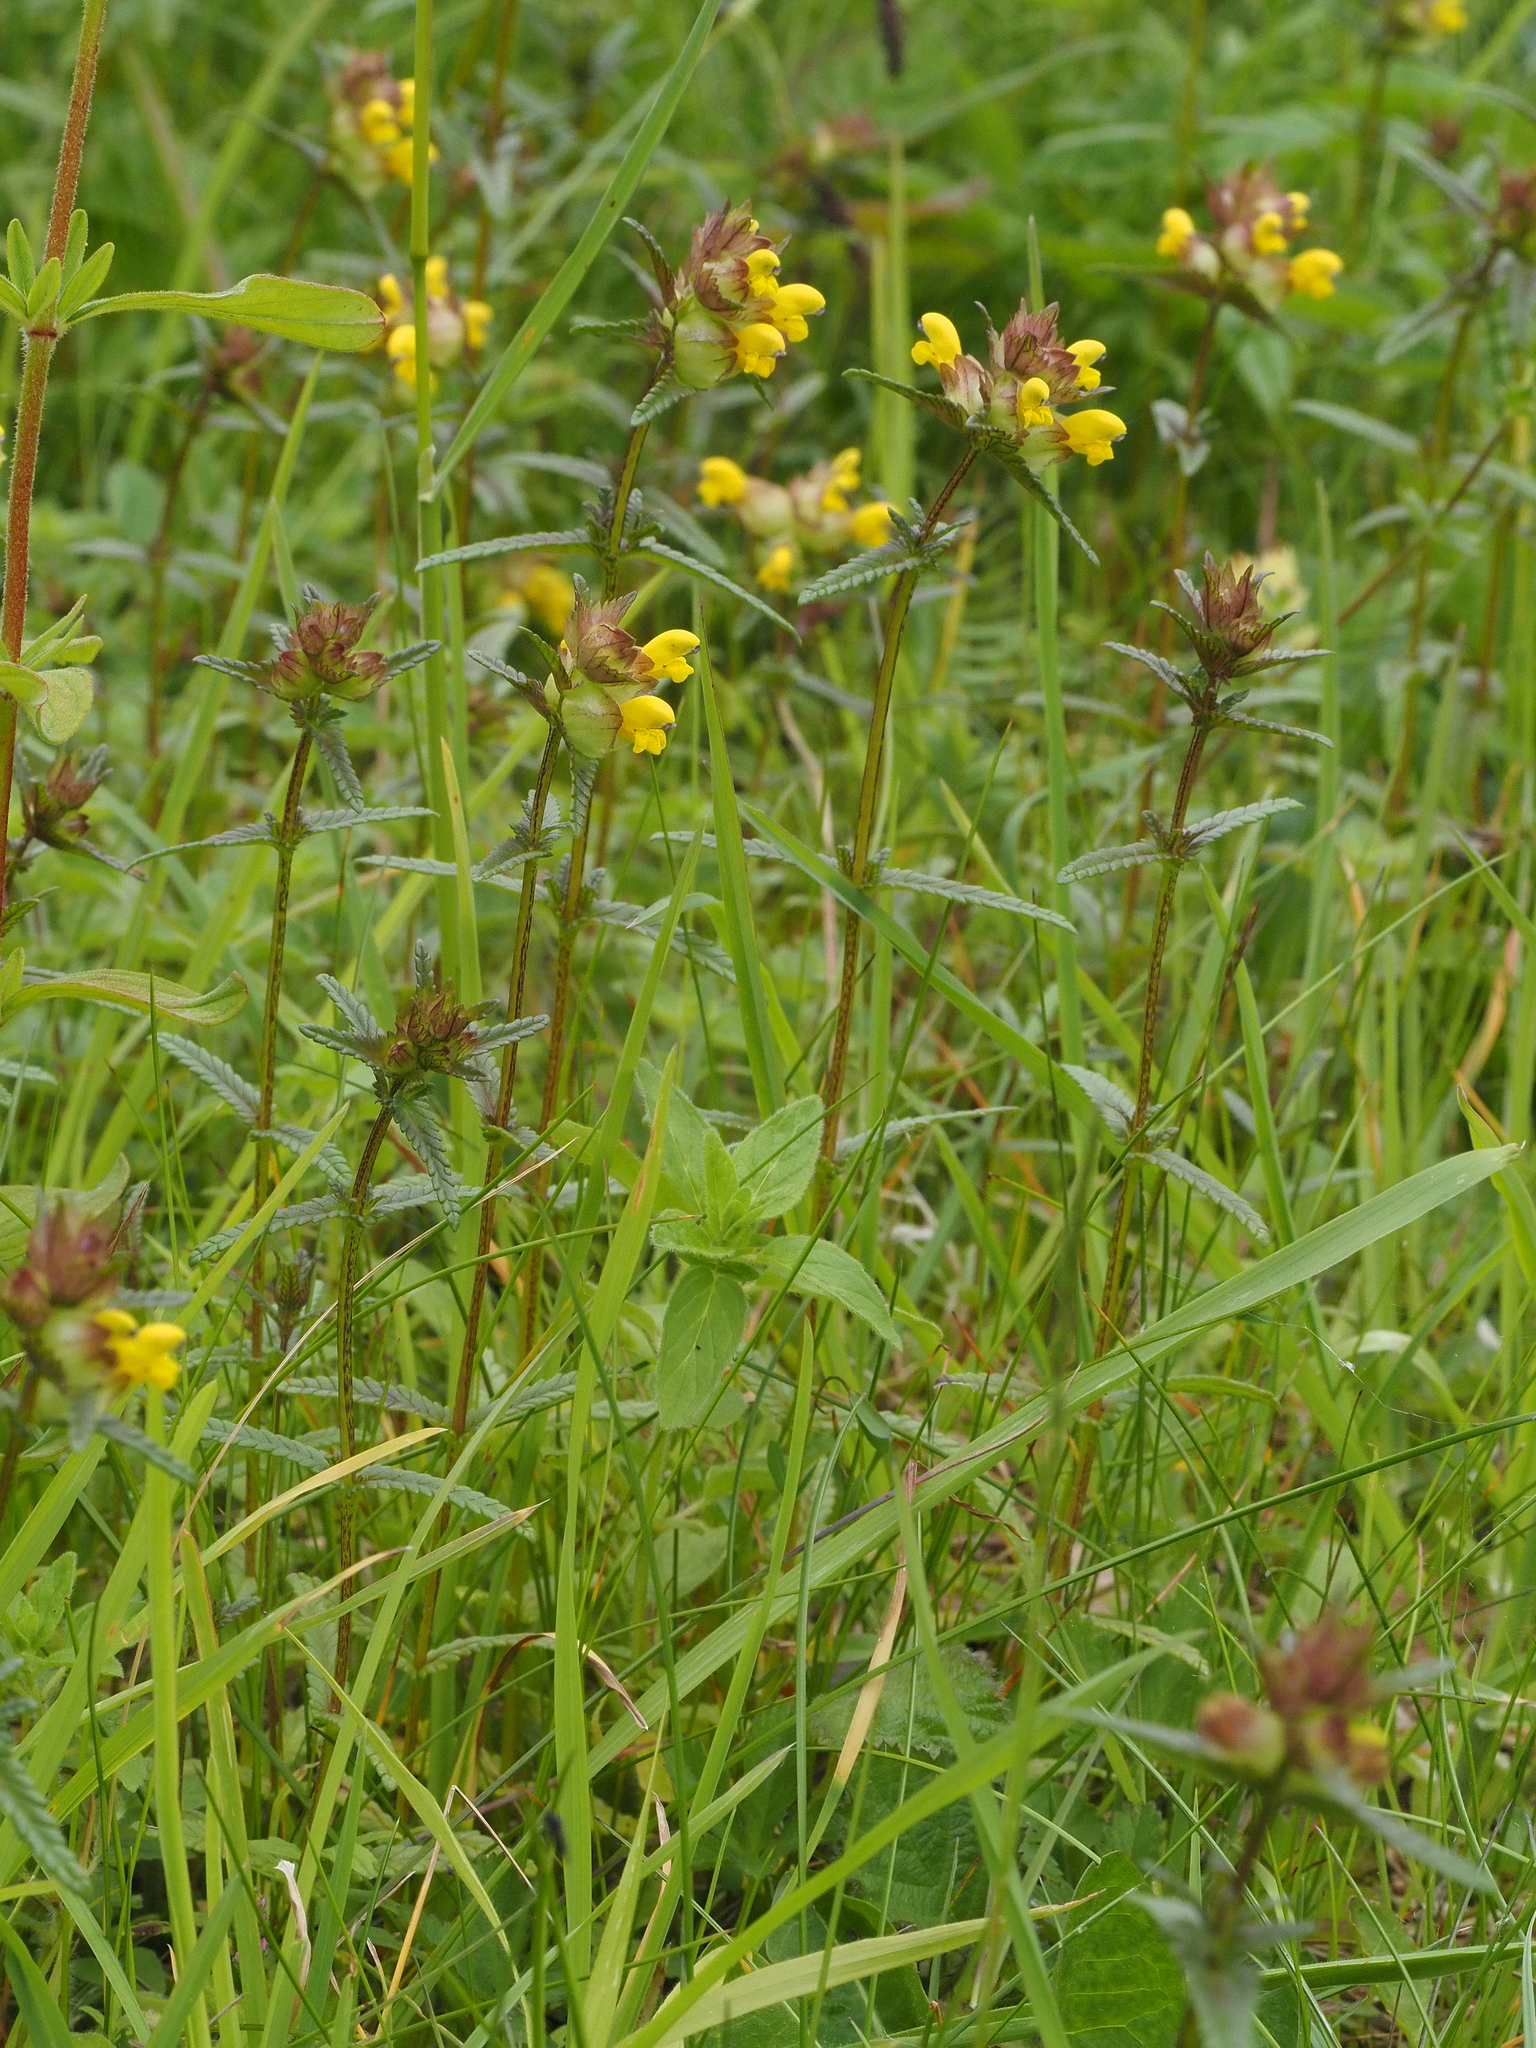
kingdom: Plantae
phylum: Tracheophyta
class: Magnoliopsida
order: Lamiales
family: Orobanchaceae
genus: Rhinanthus
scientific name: Rhinanthus minor
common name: Yellow-rattle
